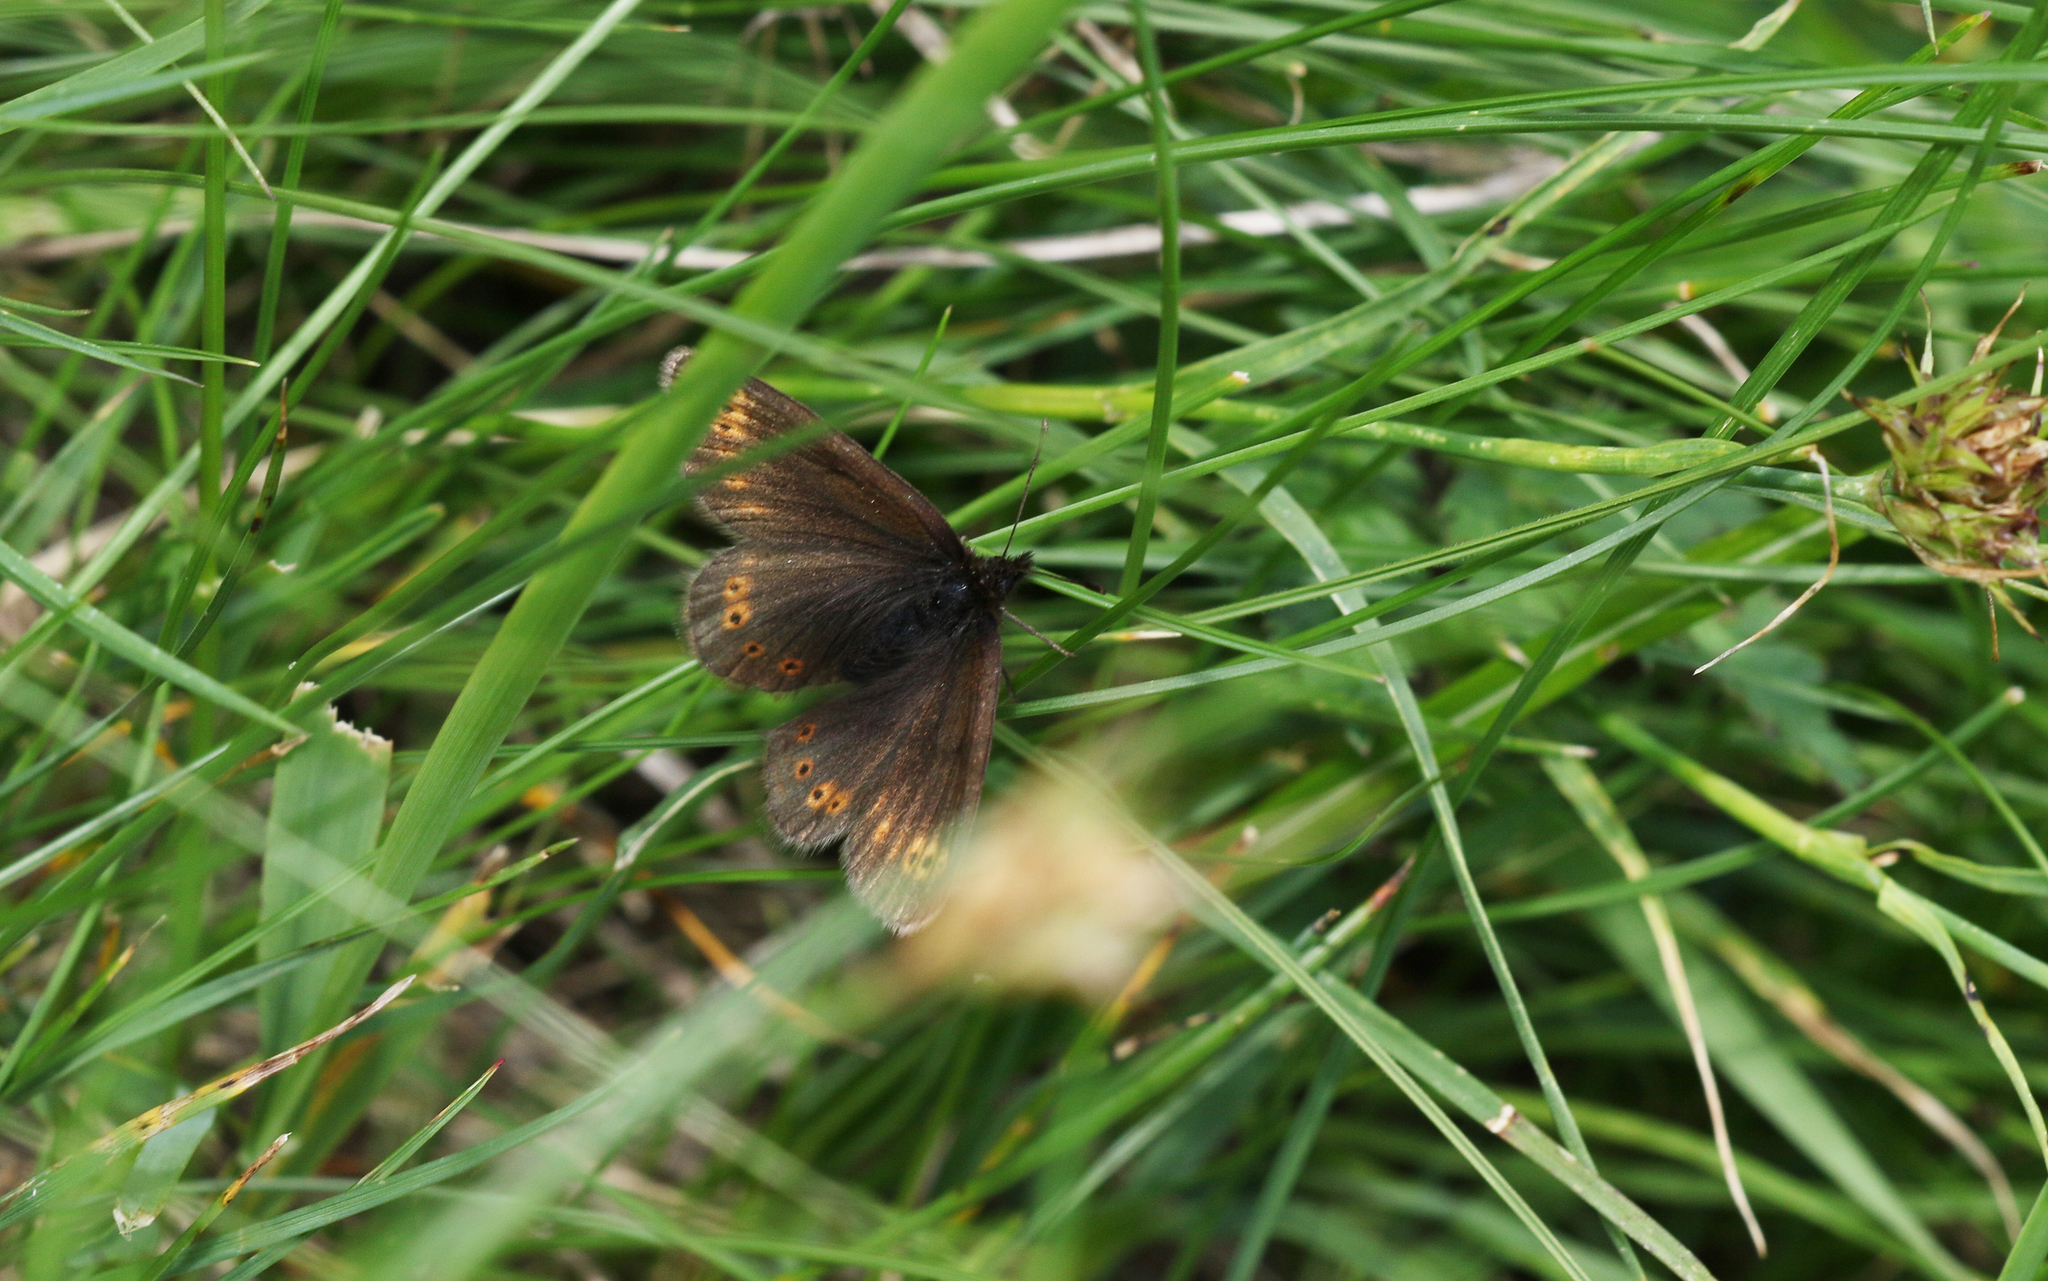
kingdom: Animalia
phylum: Arthropoda
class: Insecta
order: Lepidoptera
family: Nymphalidae
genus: Erebia
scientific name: Erebia flavofasciata
